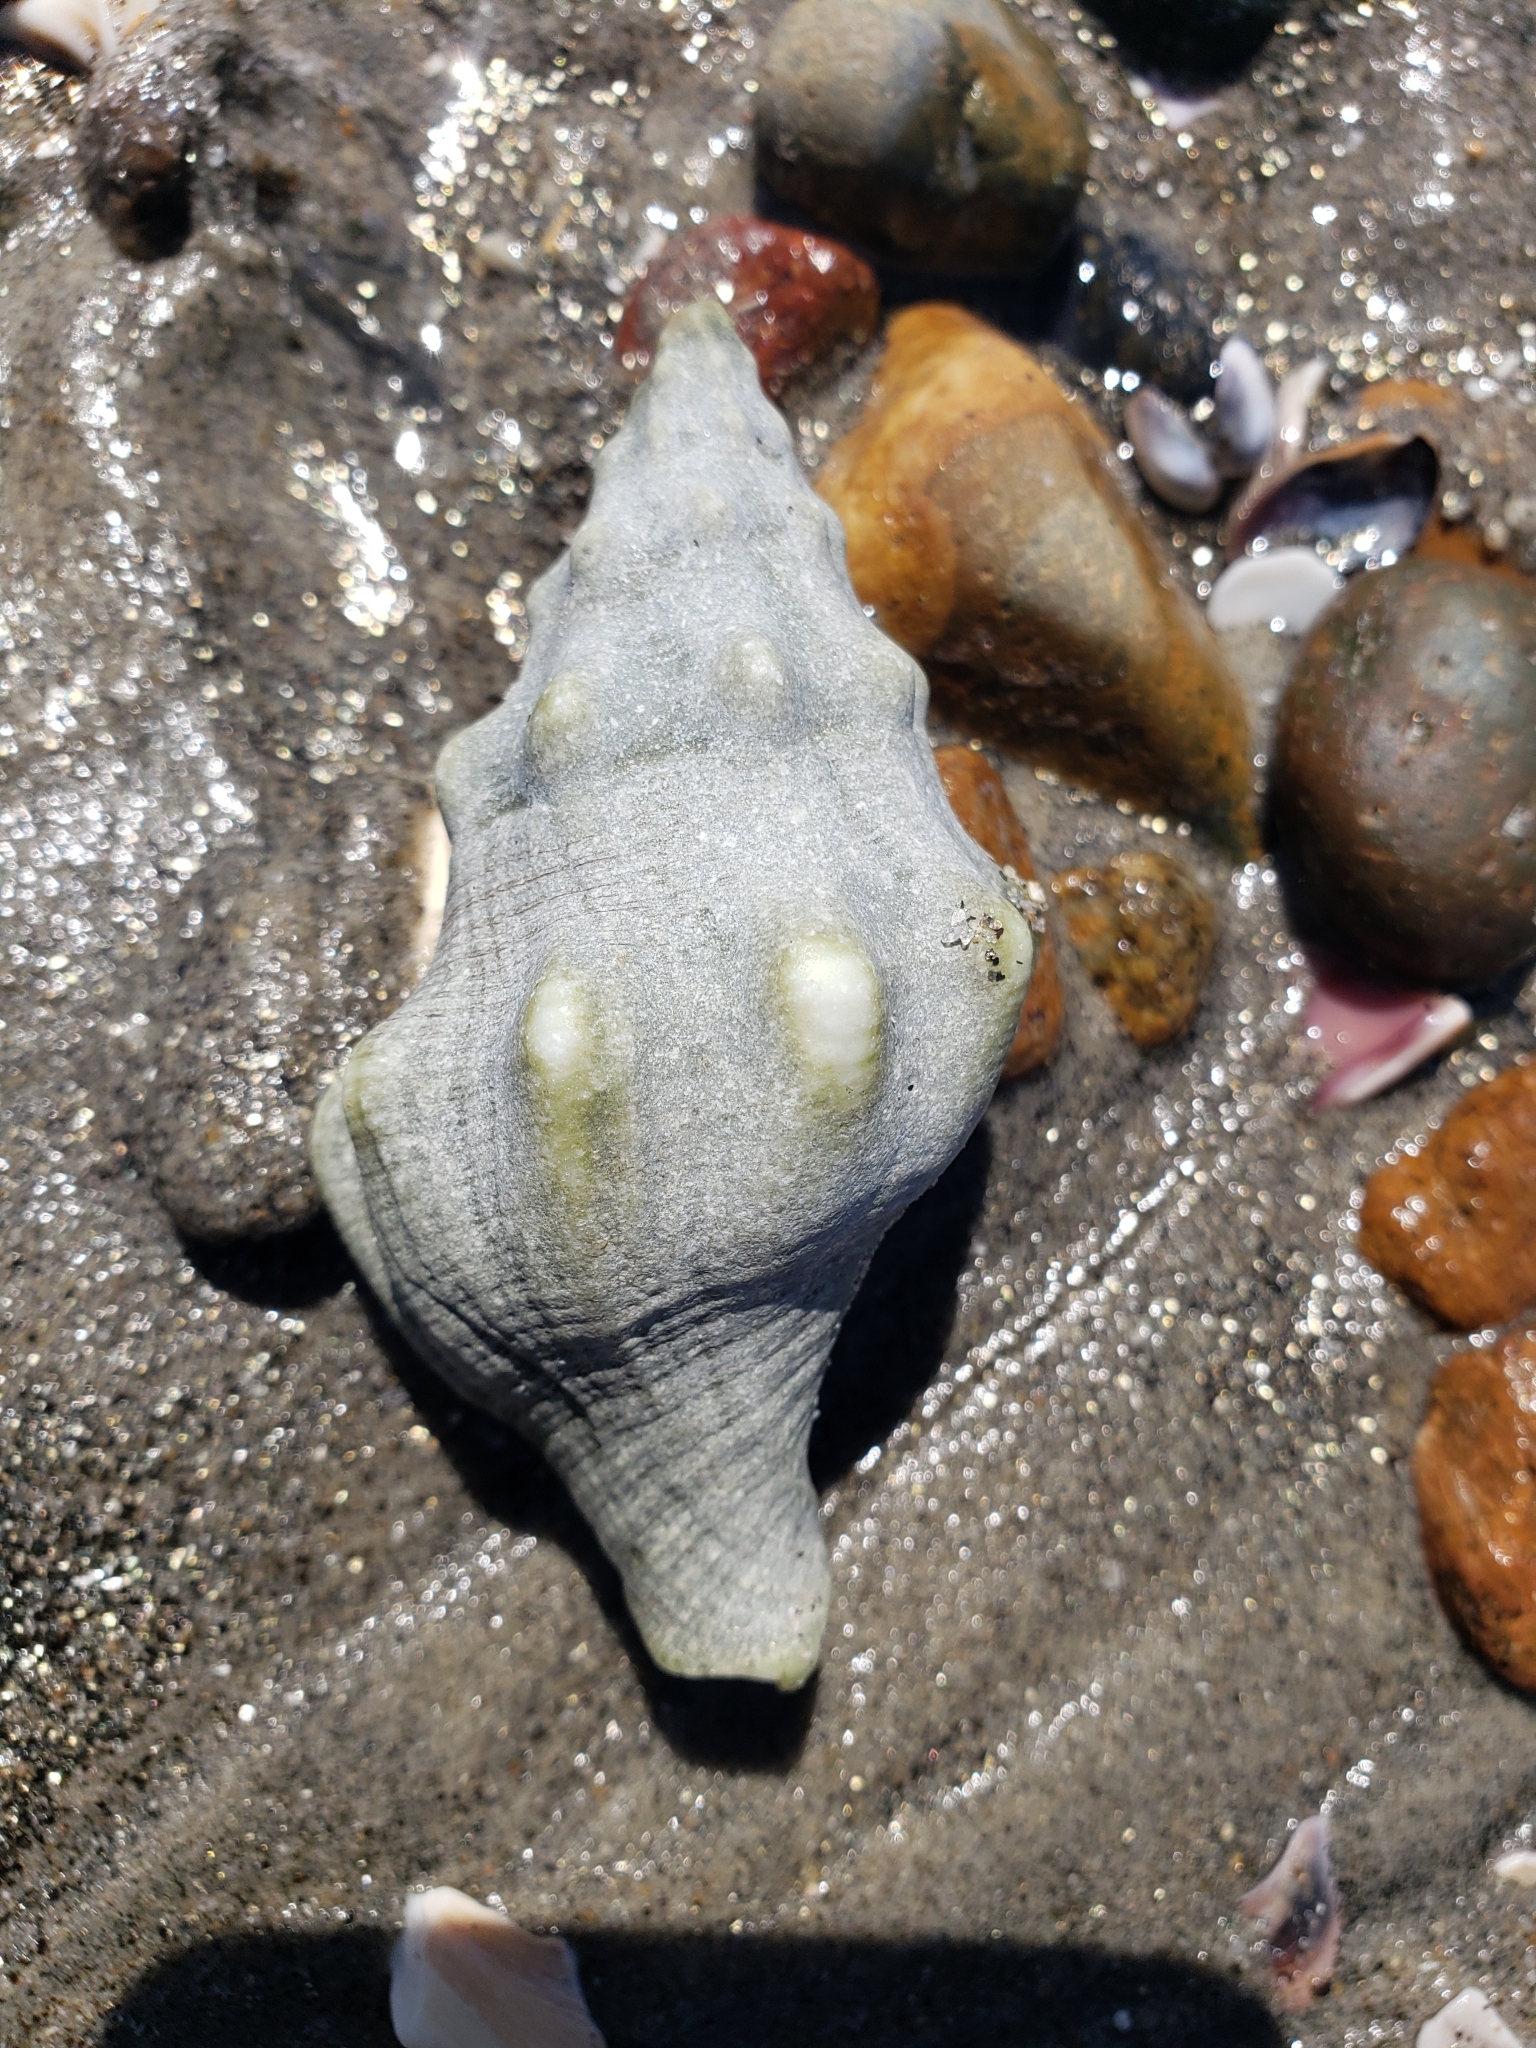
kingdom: Animalia
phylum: Mollusca
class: Gastropoda
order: Neogastropoda
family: Austrosiphonidae
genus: Kelletia
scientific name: Kelletia kelletii
